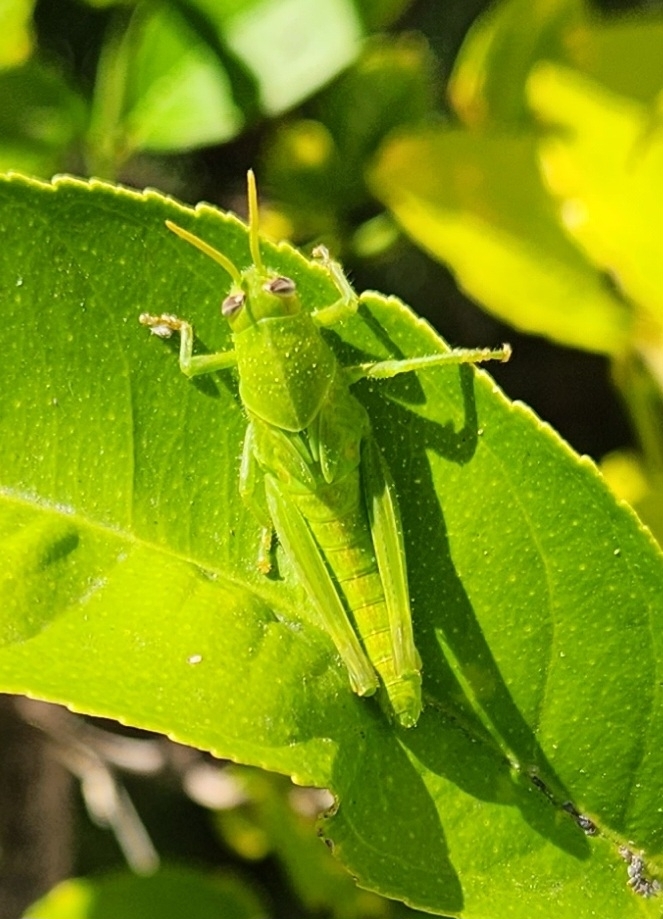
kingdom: Animalia
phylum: Arthropoda
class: Insecta
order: Orthoptera
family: Acrididae
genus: Schistocerca
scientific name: Schistocerca nitens
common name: Vagrant grasshopper
